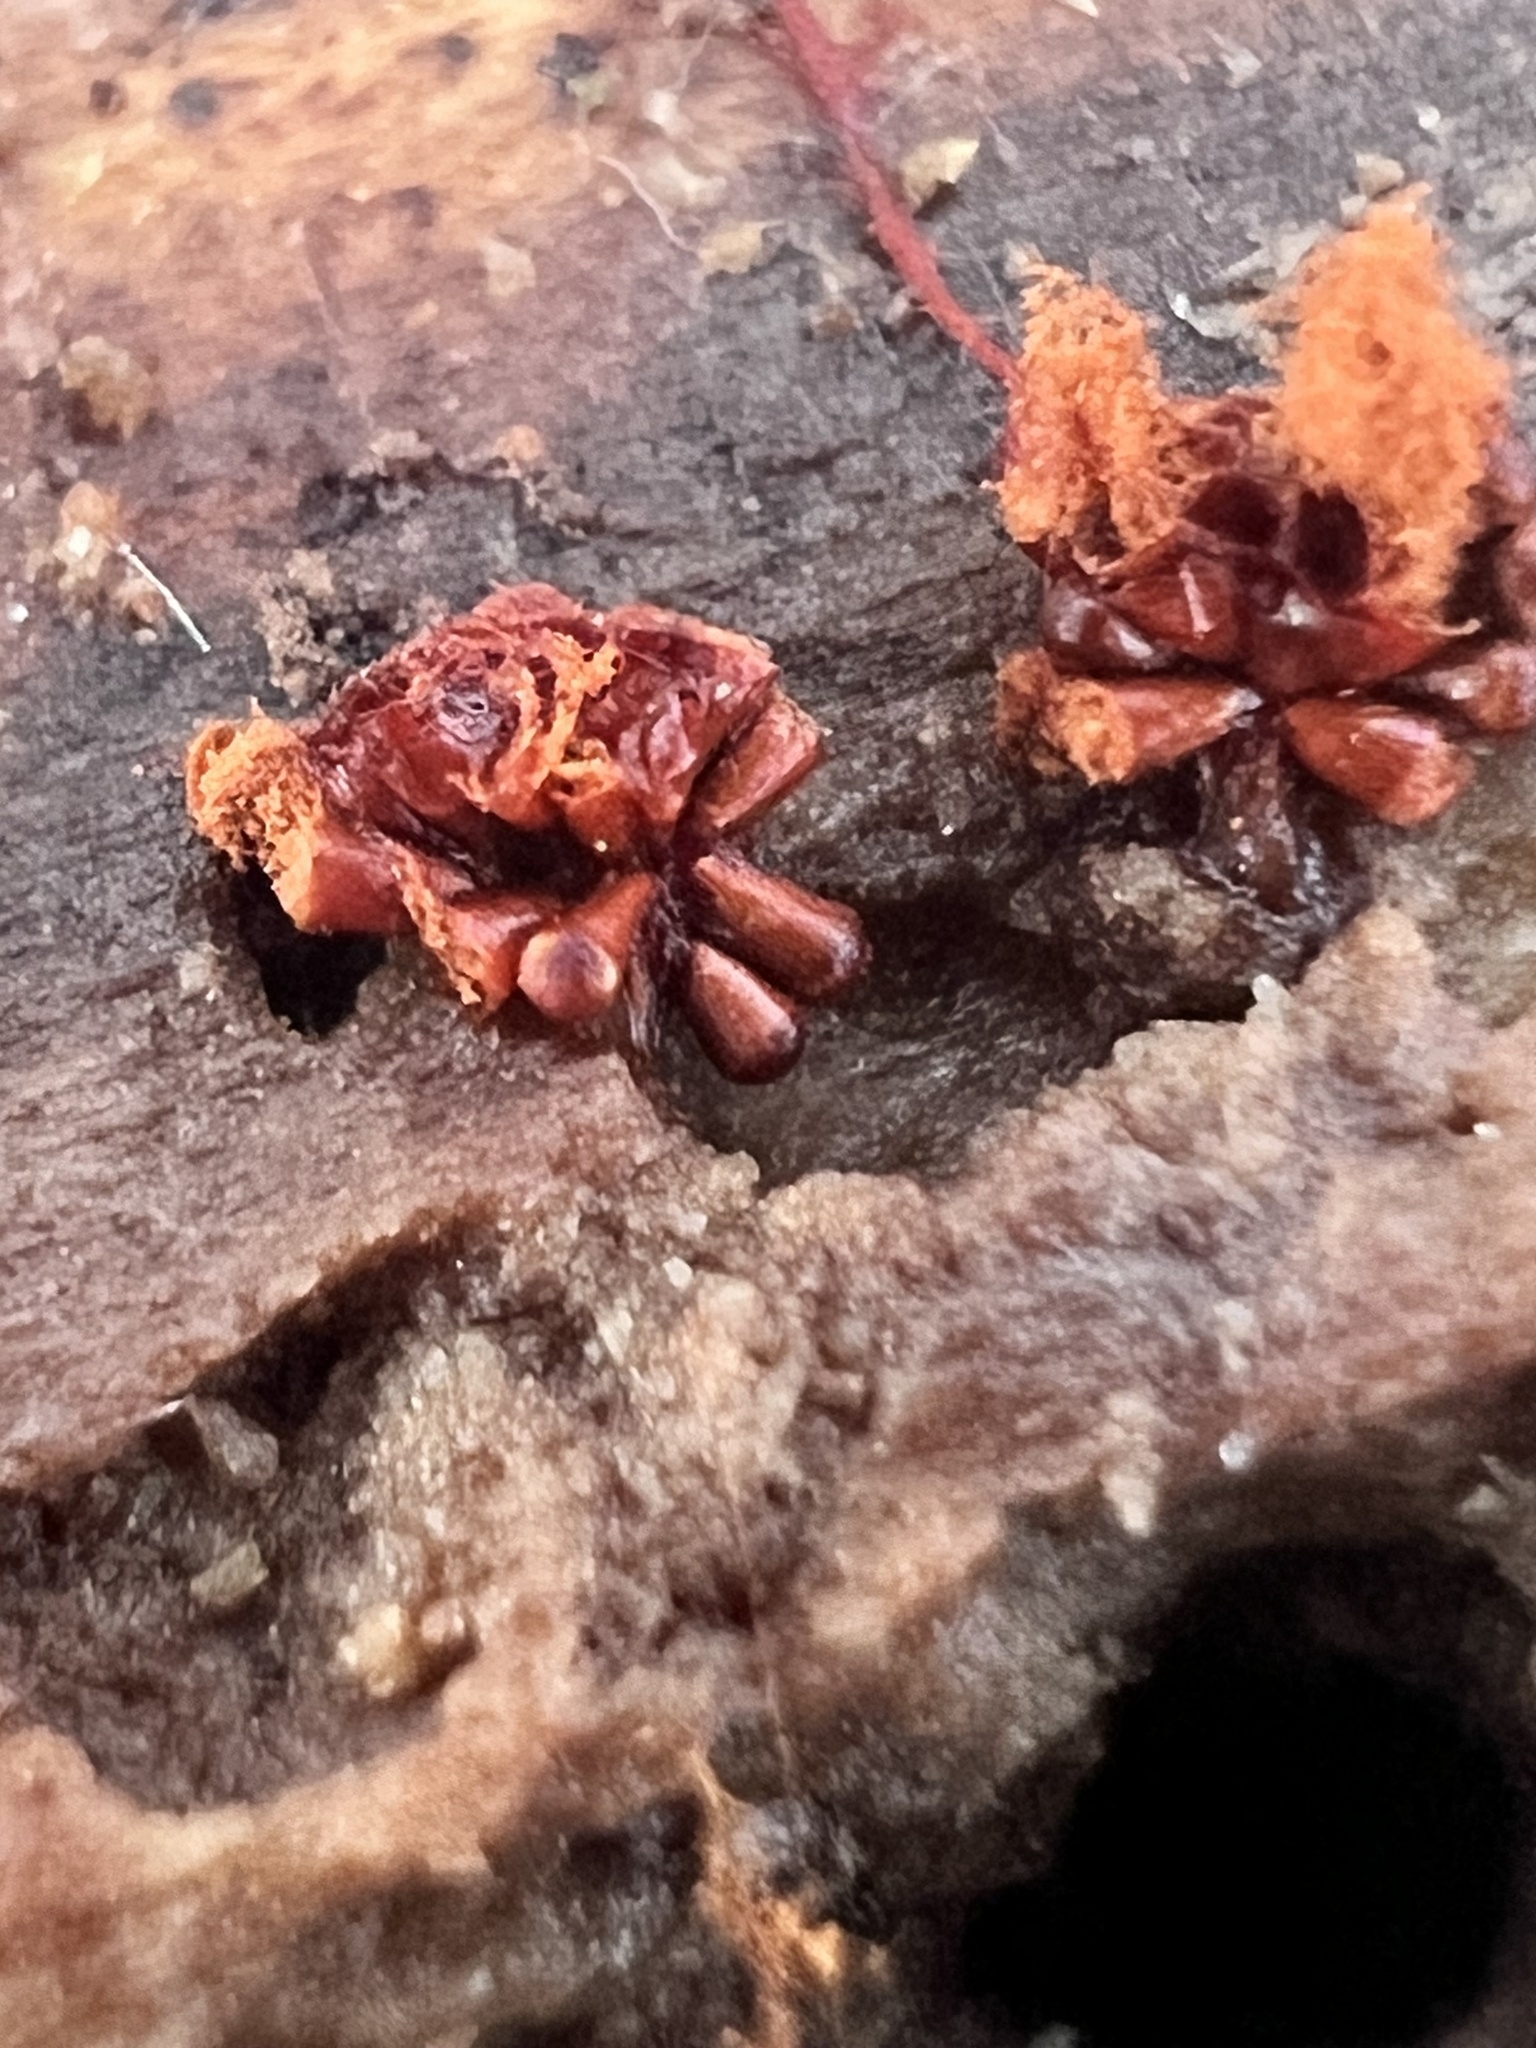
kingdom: Protozoa
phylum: Mycetozoa
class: Myxomycetes
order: Trichiales
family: Trichiaceae
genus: Metatrichia
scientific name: Metatrichia vesparia
